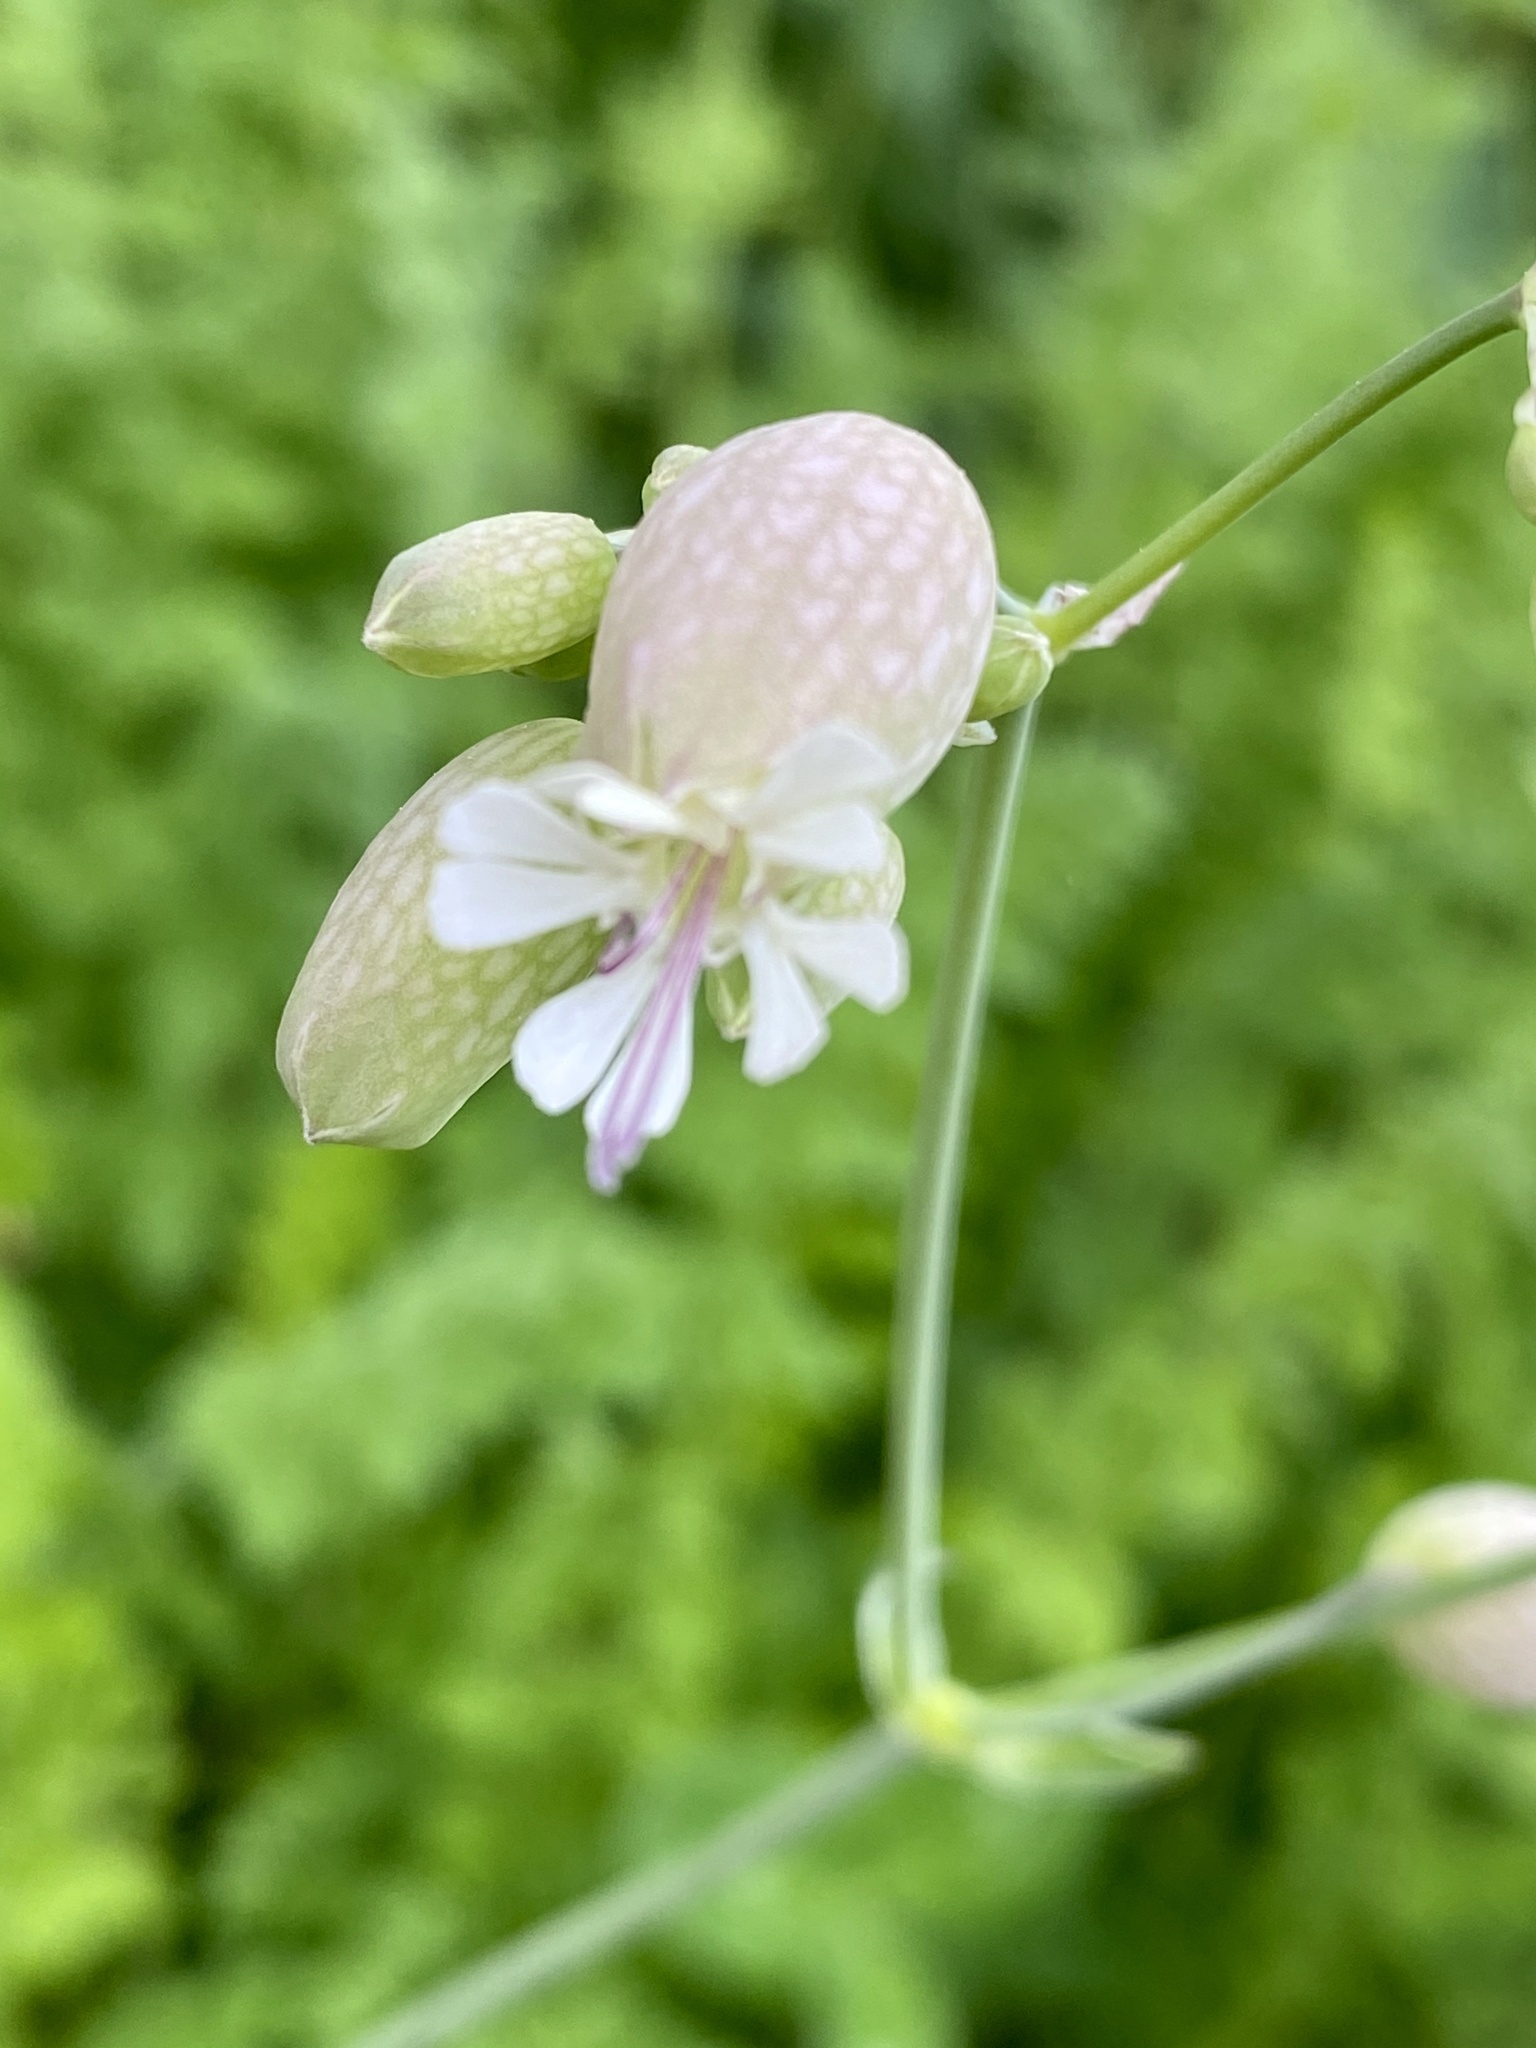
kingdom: Plantae
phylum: Tracheophyta
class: Magnoliopsida
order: Caryophyllales
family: Caryophyllaceae
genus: Silene
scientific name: Silene vulgaris
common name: Bladder campion
